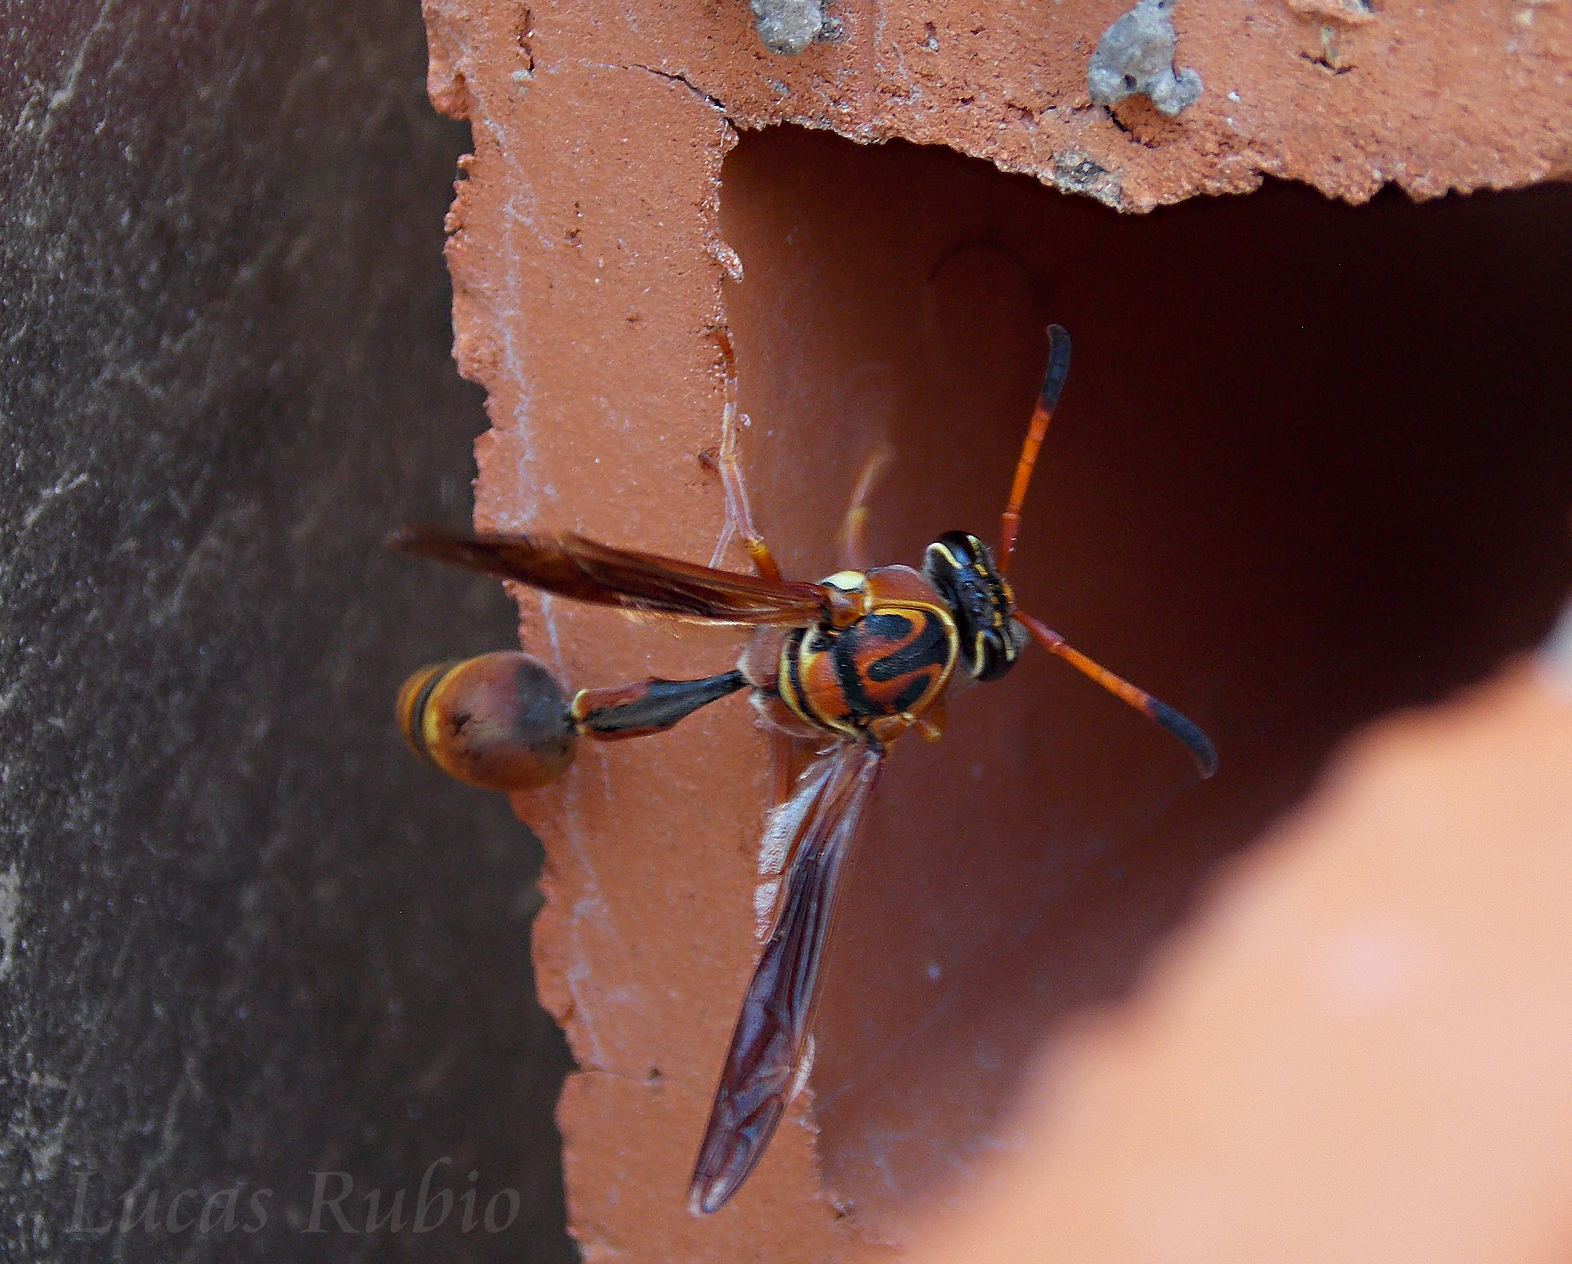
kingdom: Animalia
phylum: Arthropoda
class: Insecta
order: Hymenoptera
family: Eumenidae
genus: Zeta
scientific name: Zeta argillaceum
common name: Potter wasp
